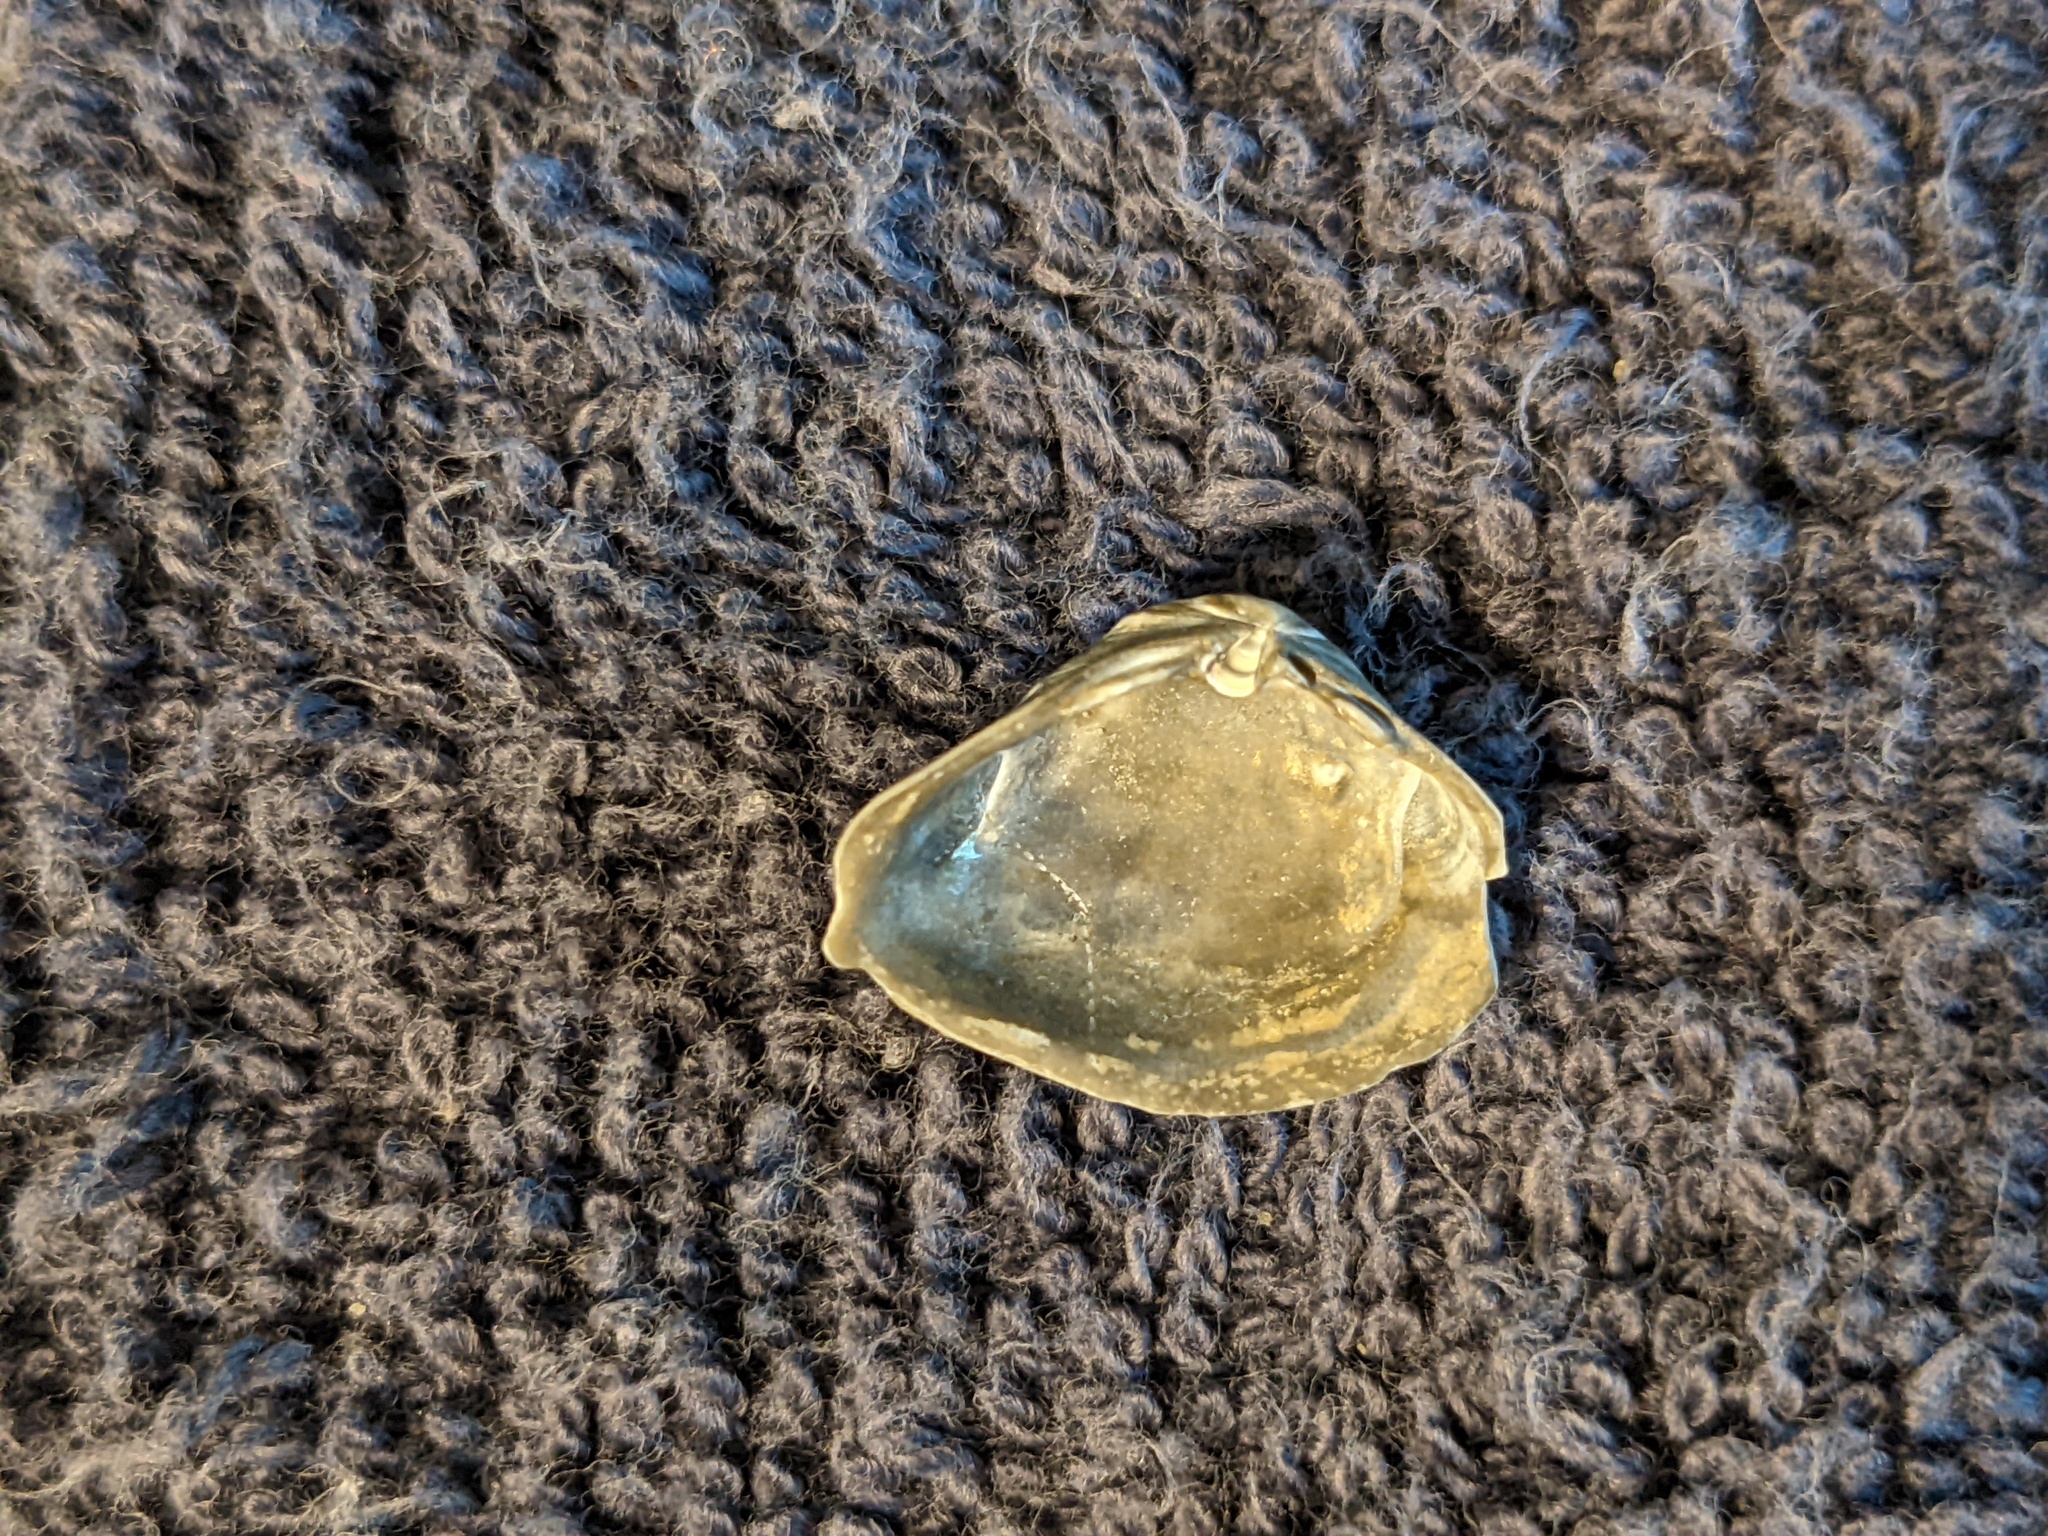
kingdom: Animalia
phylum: Mollusca
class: Bivalvia
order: Venerida
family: Mactridae
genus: Mulinia
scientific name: Mulinia lateralis
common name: Dwarf surfclam
